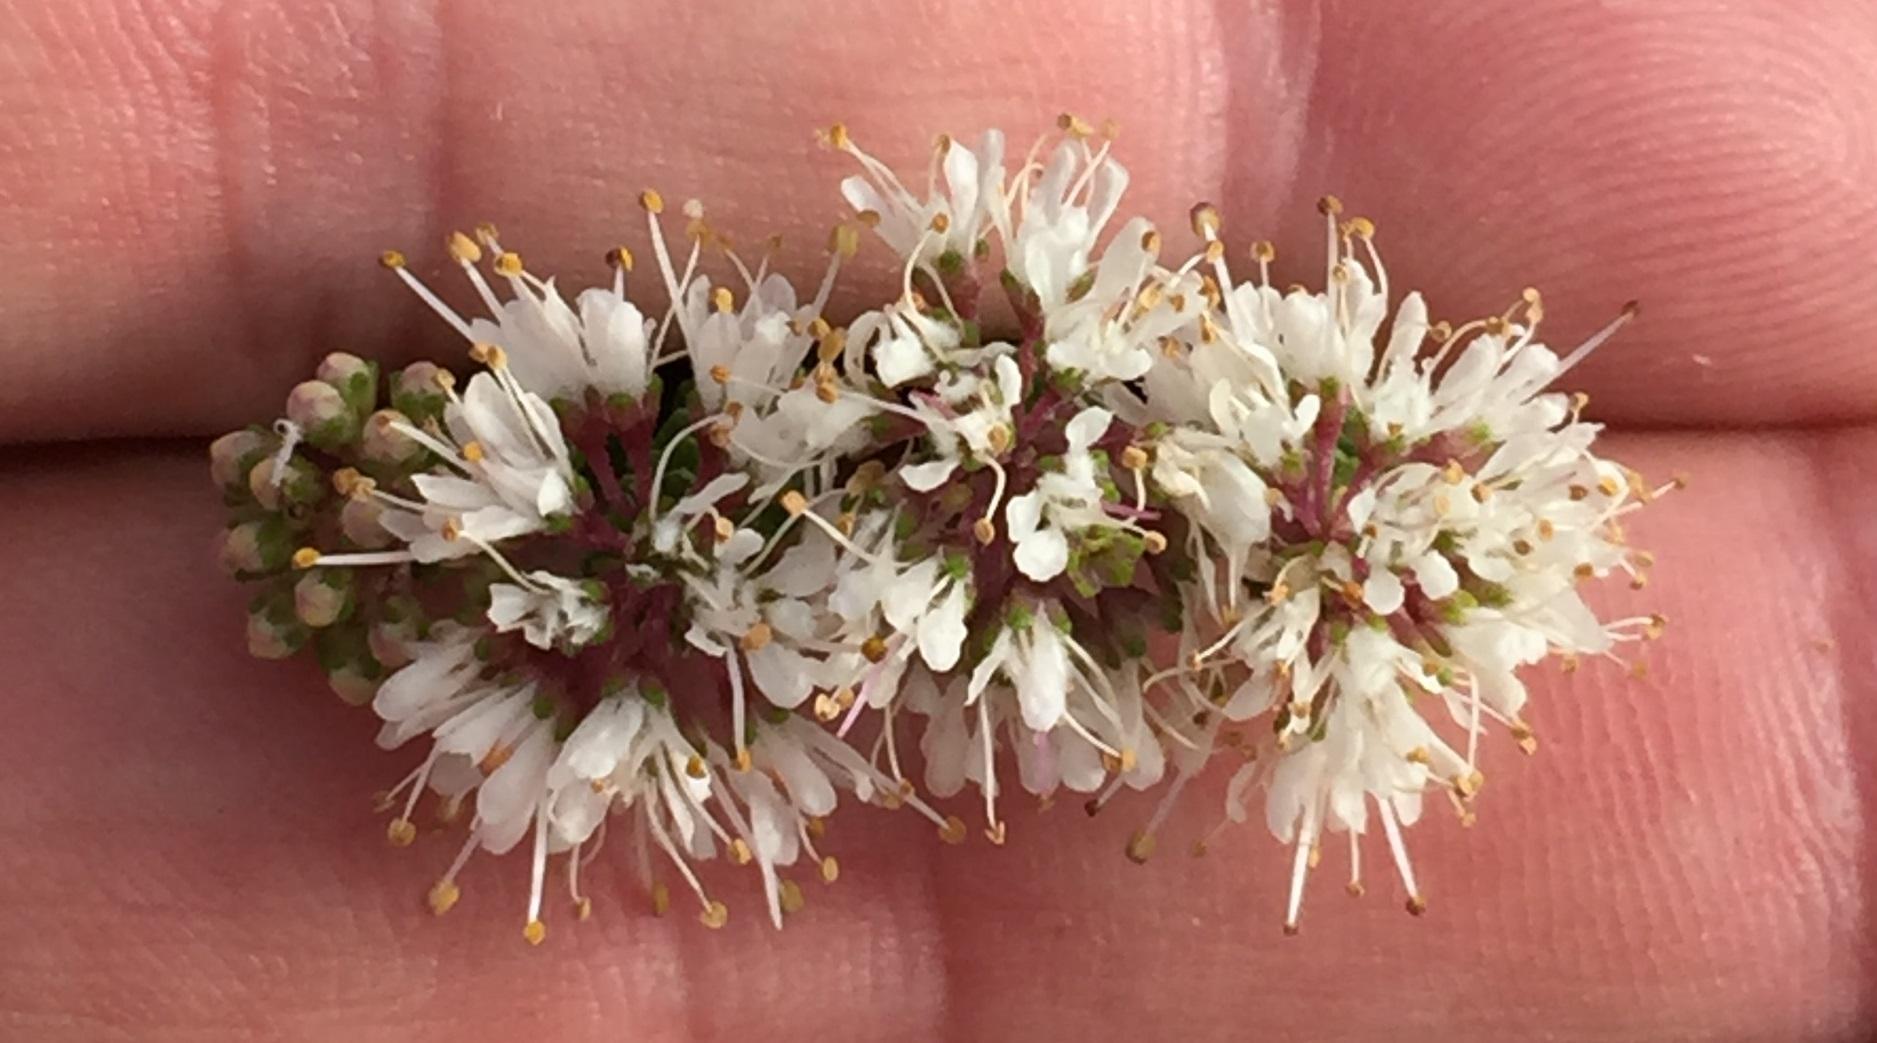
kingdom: Plantae
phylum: Tracheophyta
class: Magnoliopsida
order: Sapindales
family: Rutaceae
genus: Agathosma
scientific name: Agathosma muirii
